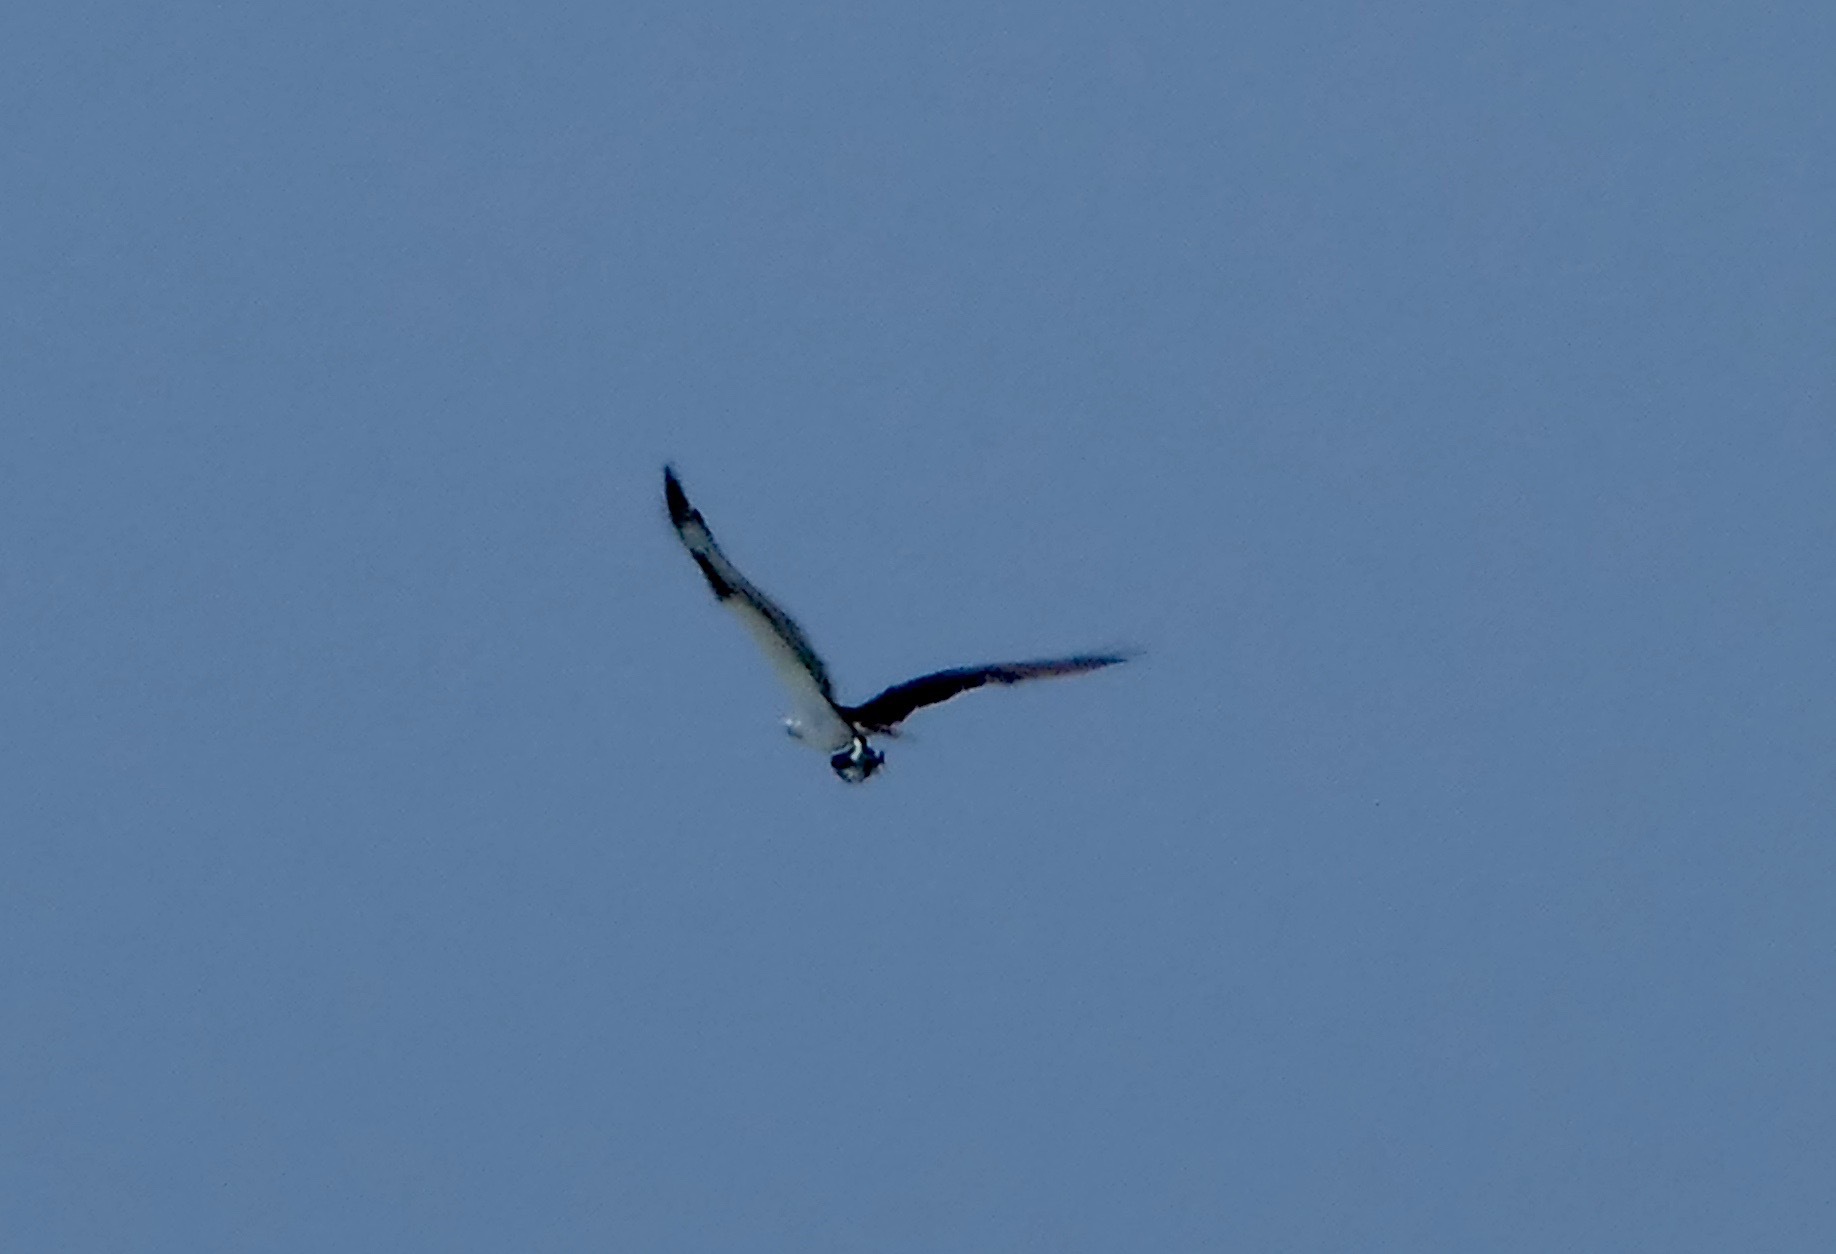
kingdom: Animalia
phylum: Chordata
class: Aves
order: Accipitriformes
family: Pandionidae
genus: Pandion
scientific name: Pandion haliaetus
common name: Osprey
